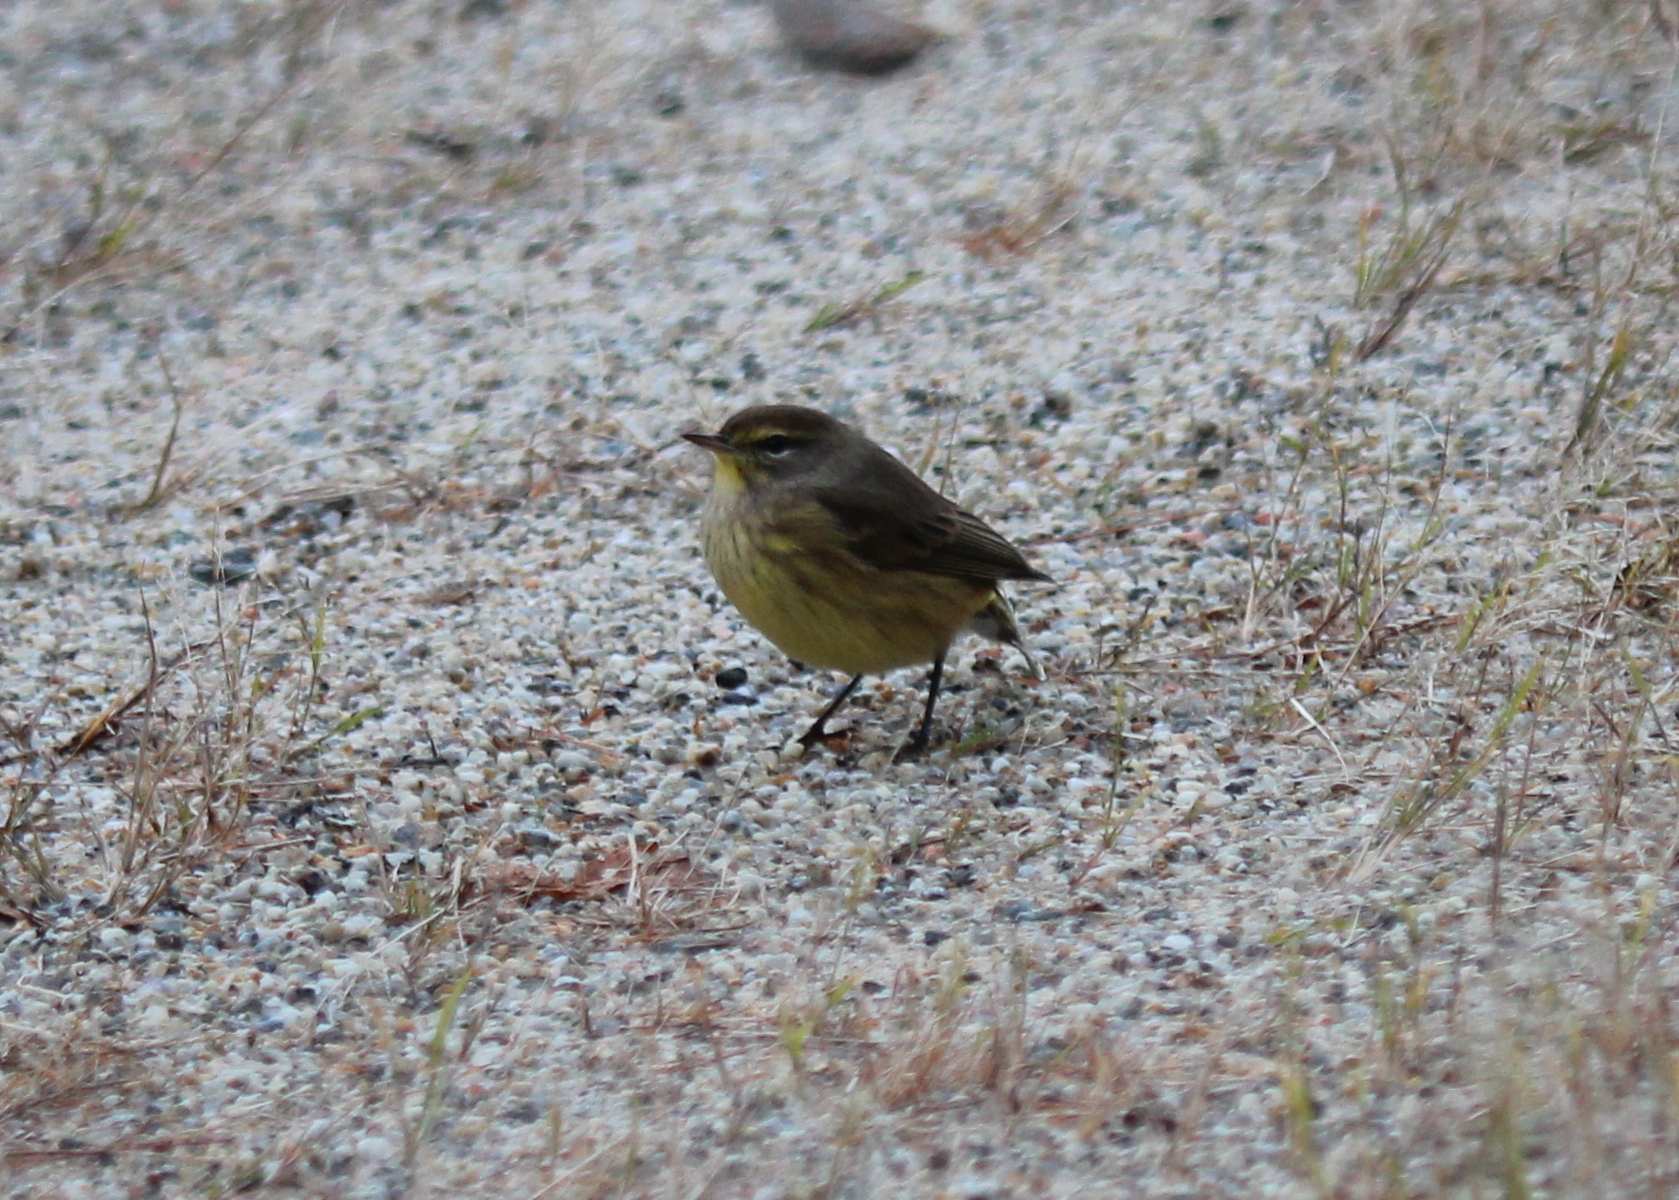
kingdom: Animalia
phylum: Chordata
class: Aves
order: Passeriformes
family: Parulidae
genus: Setophaga
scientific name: Setophaga palmarum
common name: Palm warbler
